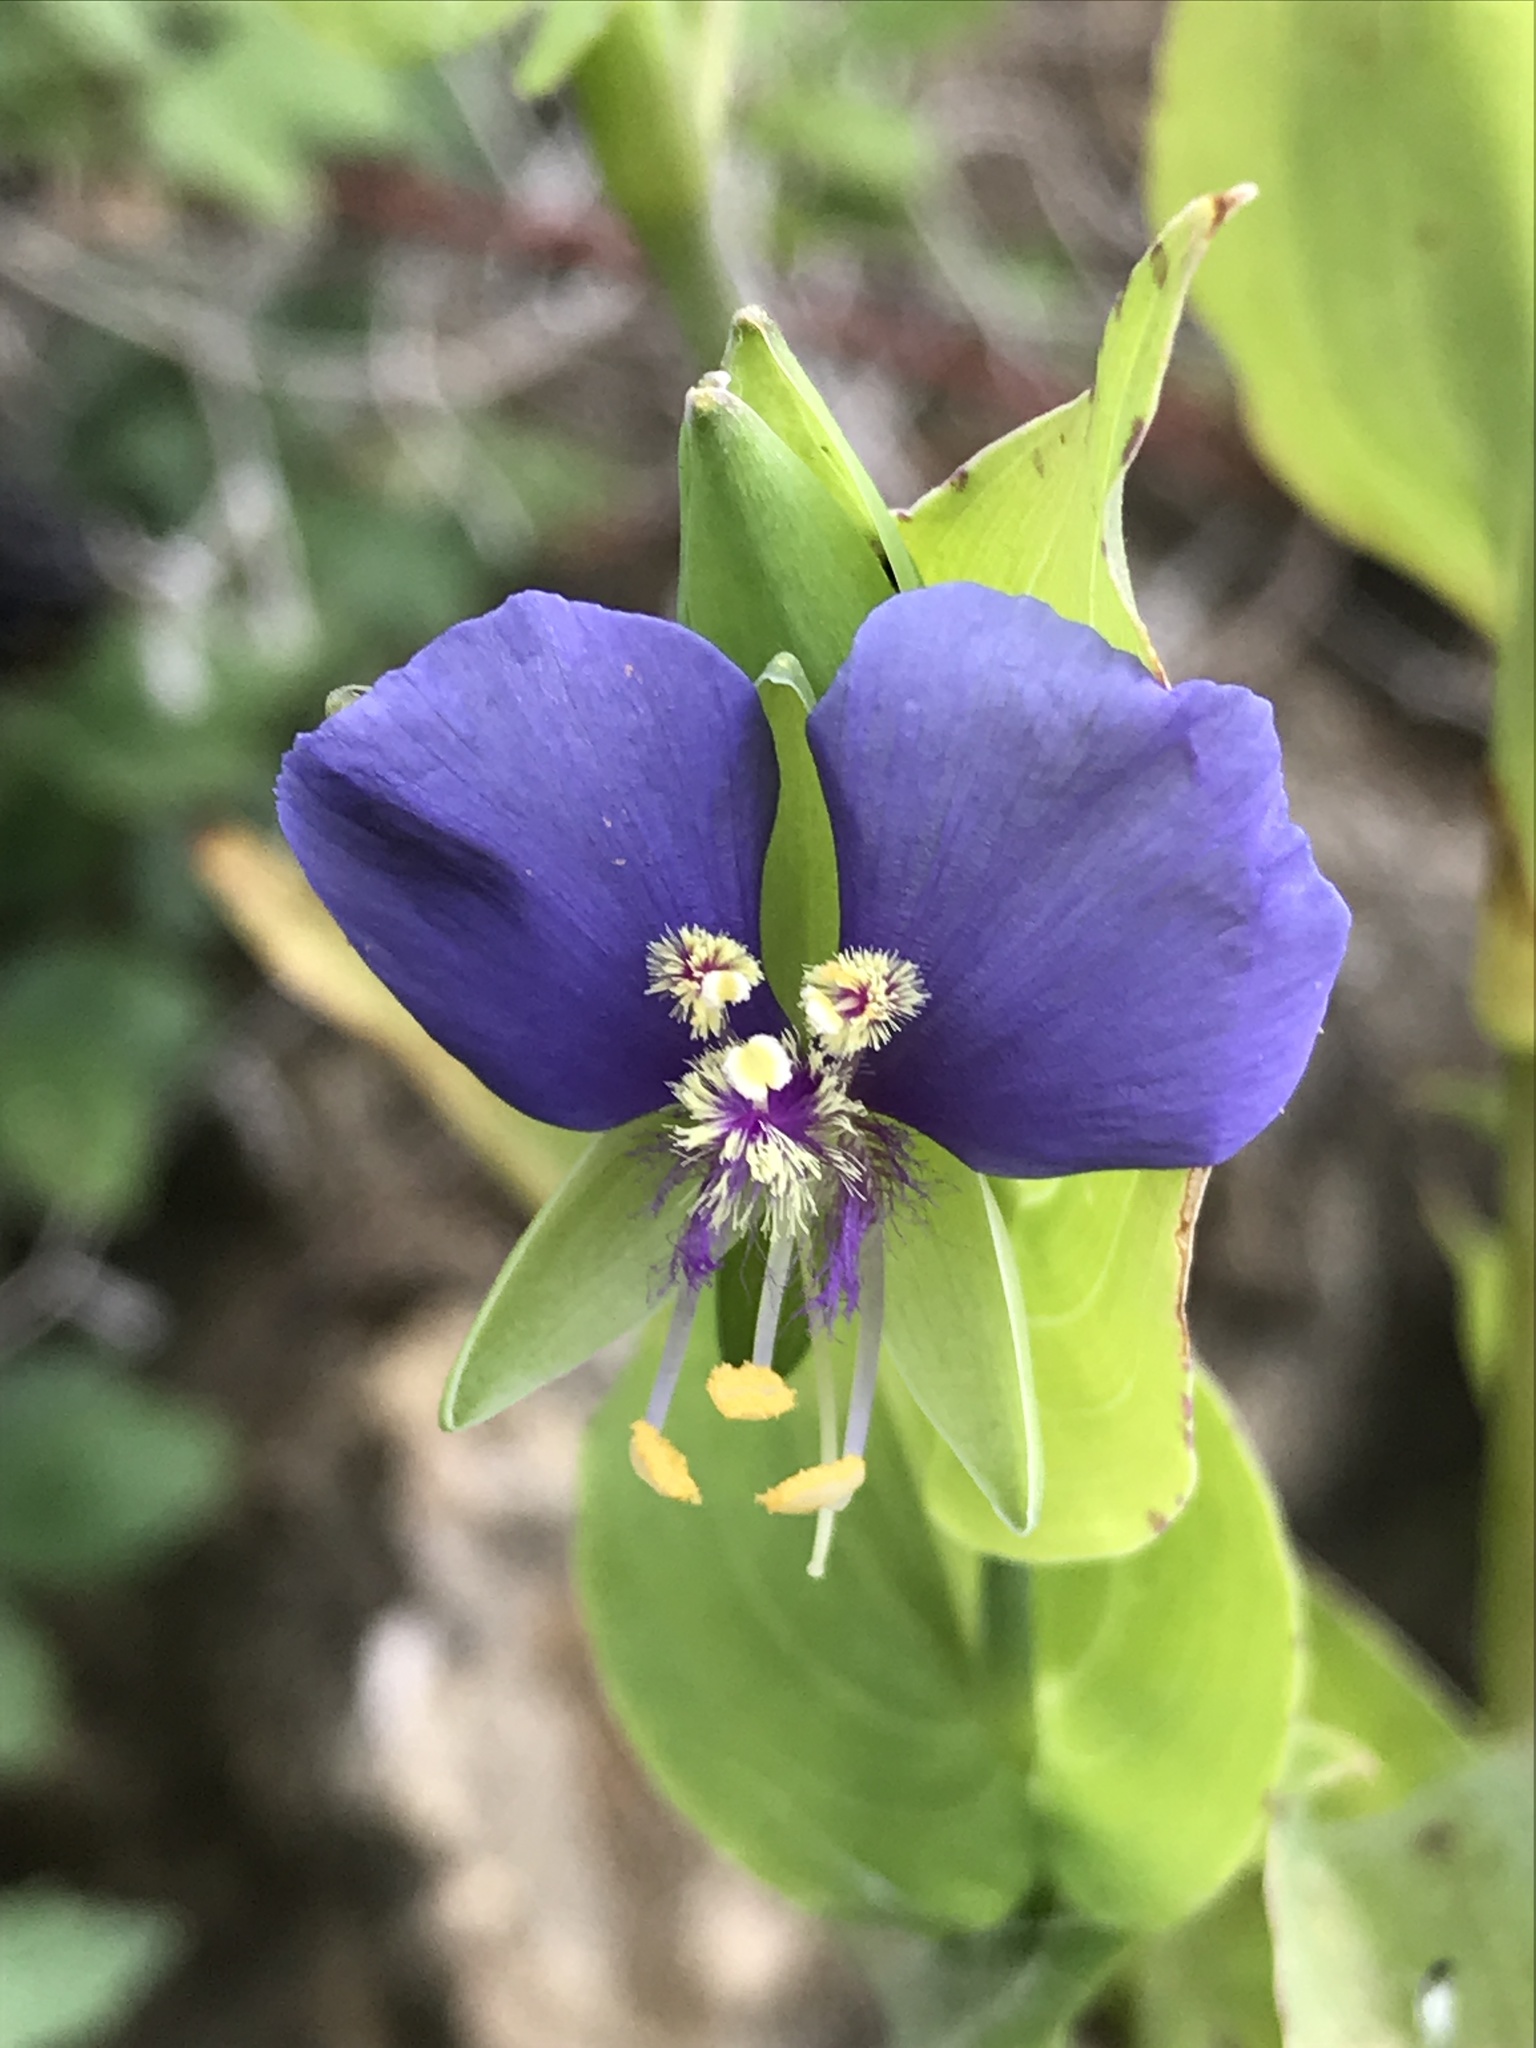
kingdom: Plantae
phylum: Tracheophyta
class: Liliopsida
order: Commelinales
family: Commelinaceae
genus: Tinantia
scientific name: Tinantia anomala
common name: False dayflower
